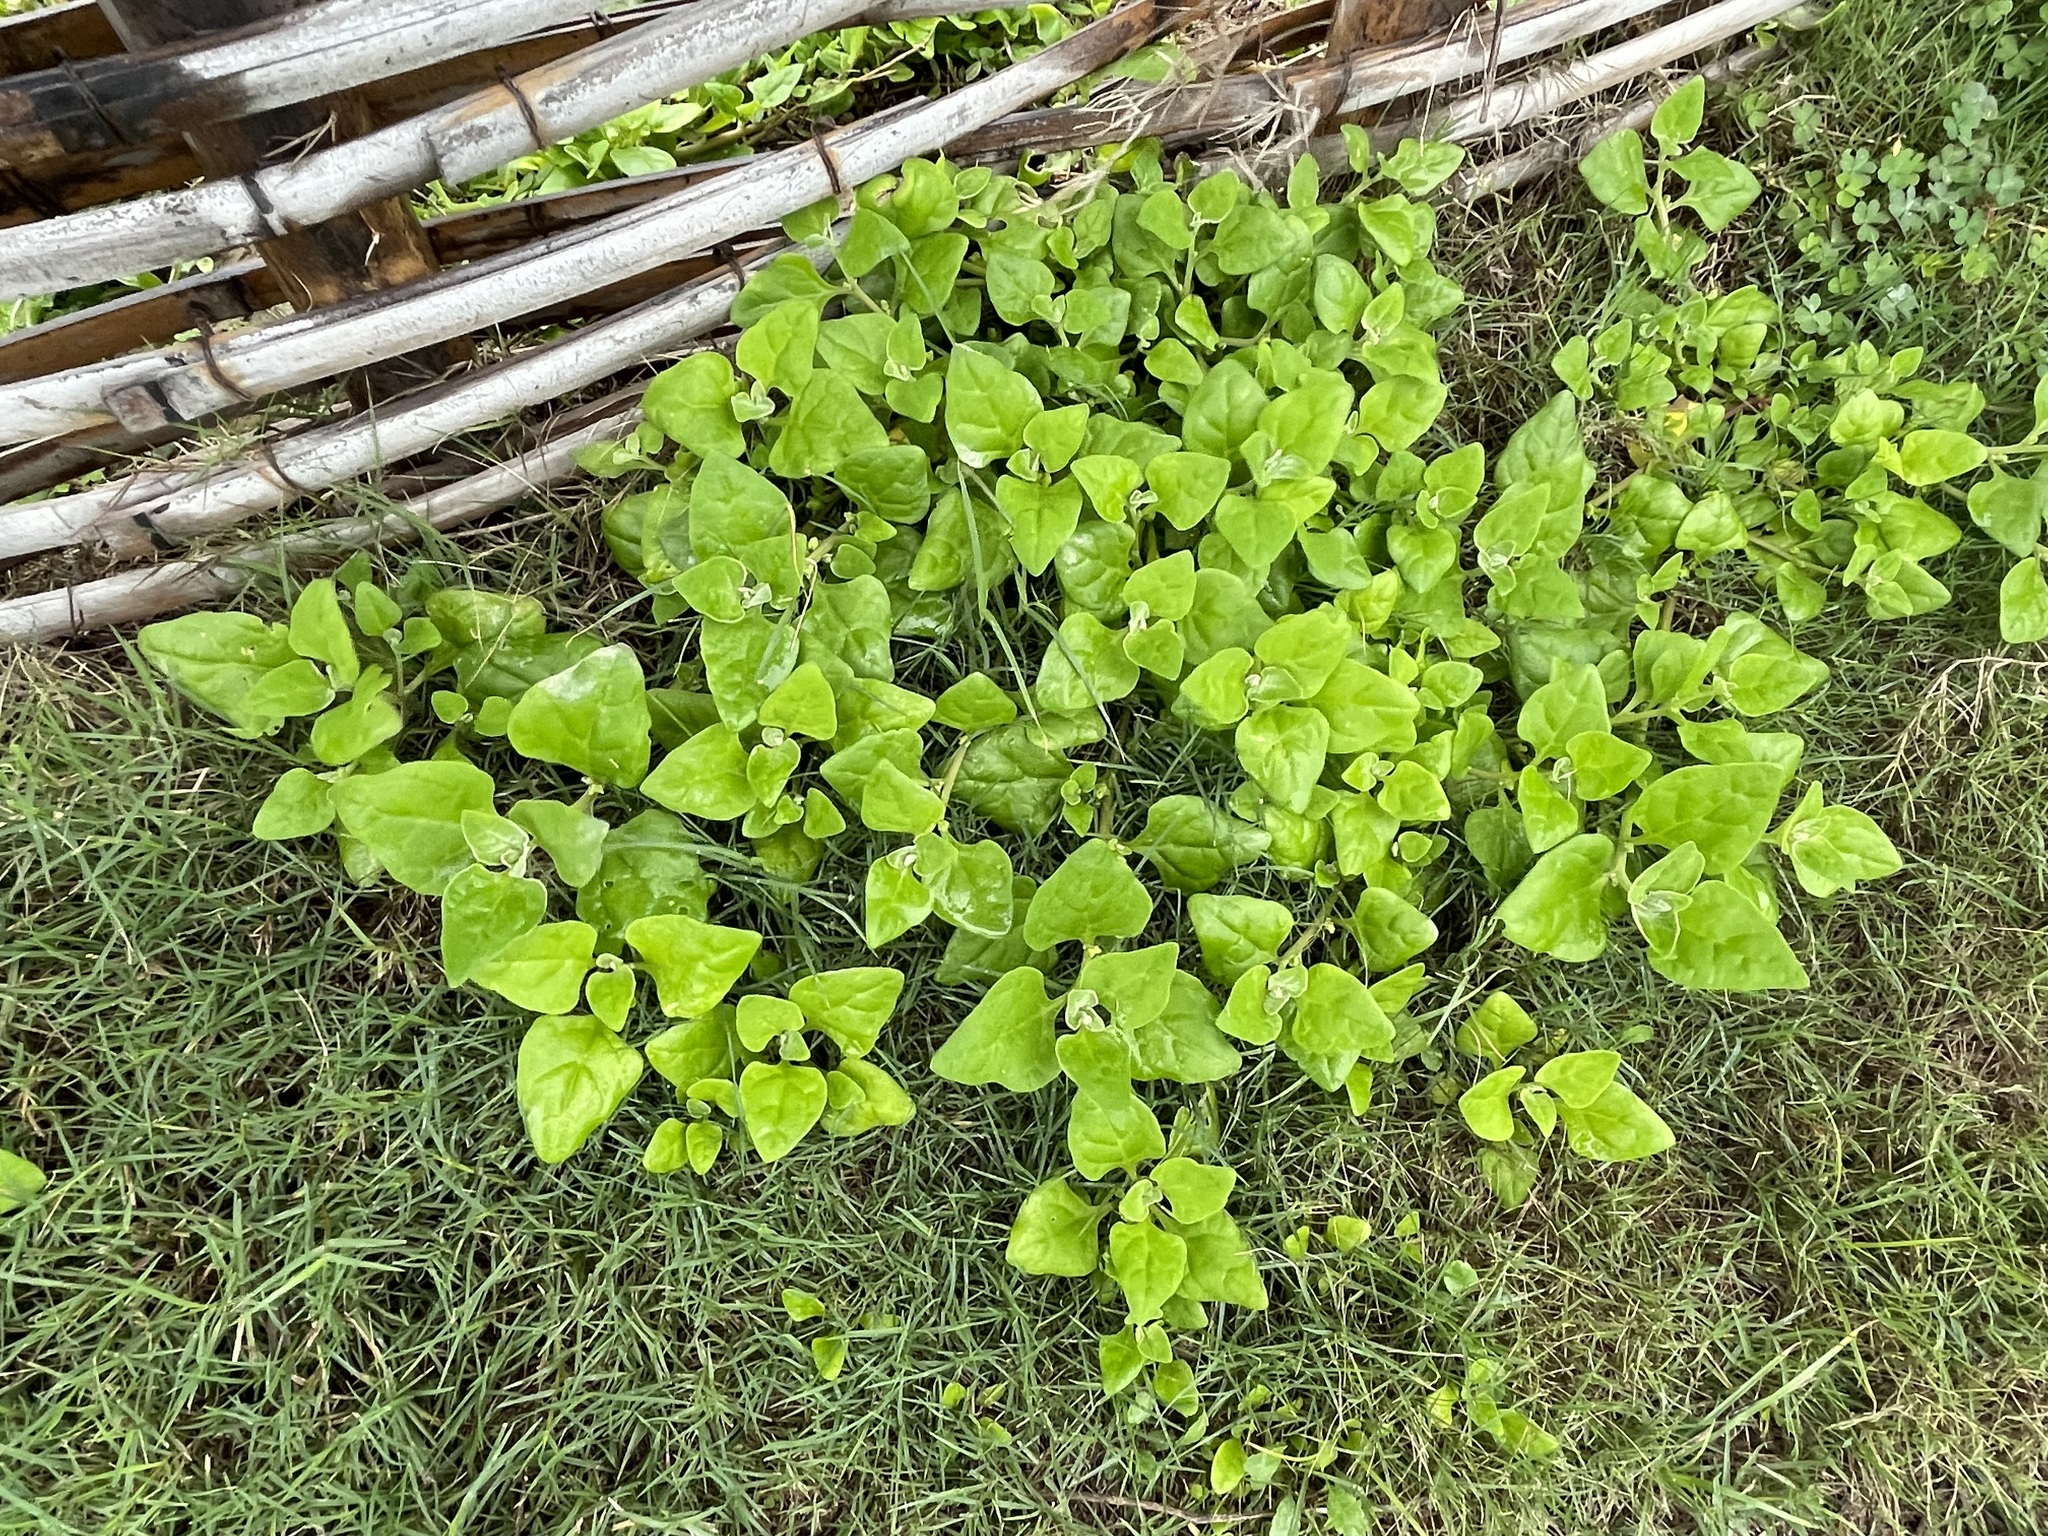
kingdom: Plantae
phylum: Tracheophyta
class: Magnoliopsida
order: Caryophyllales
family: Aizoaceae
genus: Tetragonia
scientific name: Tetragonia tetragonoides
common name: New zealand-spinach
